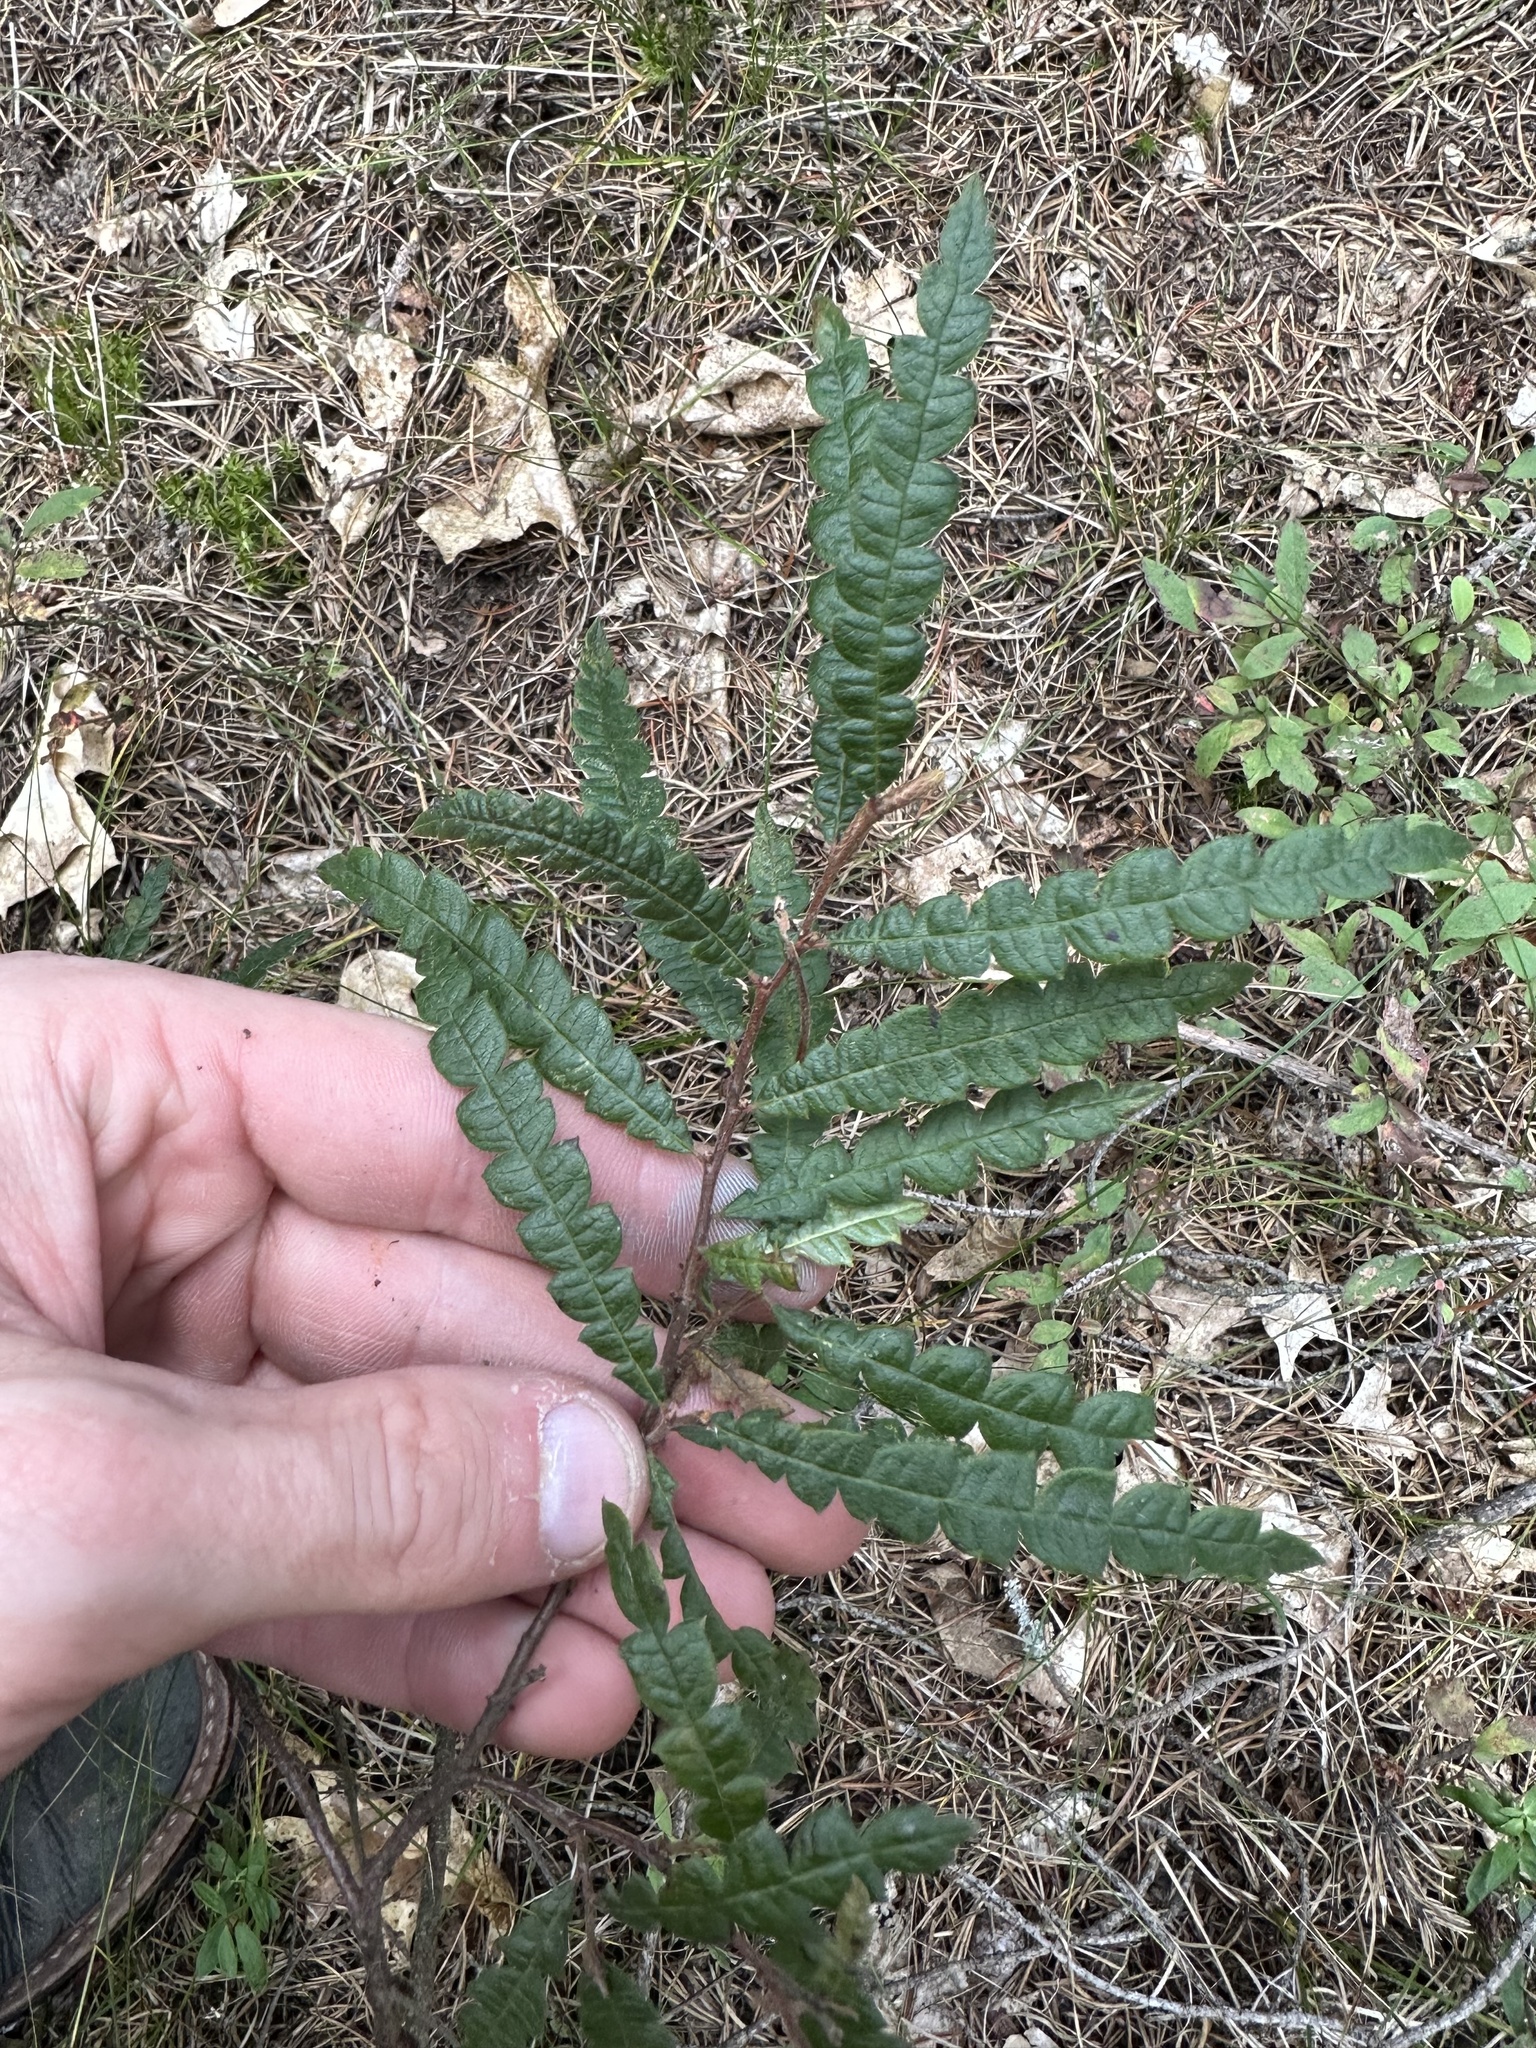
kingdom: Plantae
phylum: Tracheophyta
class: Magnoliopsida
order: Fagales
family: Myricaceae
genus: Comptonia
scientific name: Comptonia peregrina
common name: Sweet-fern
